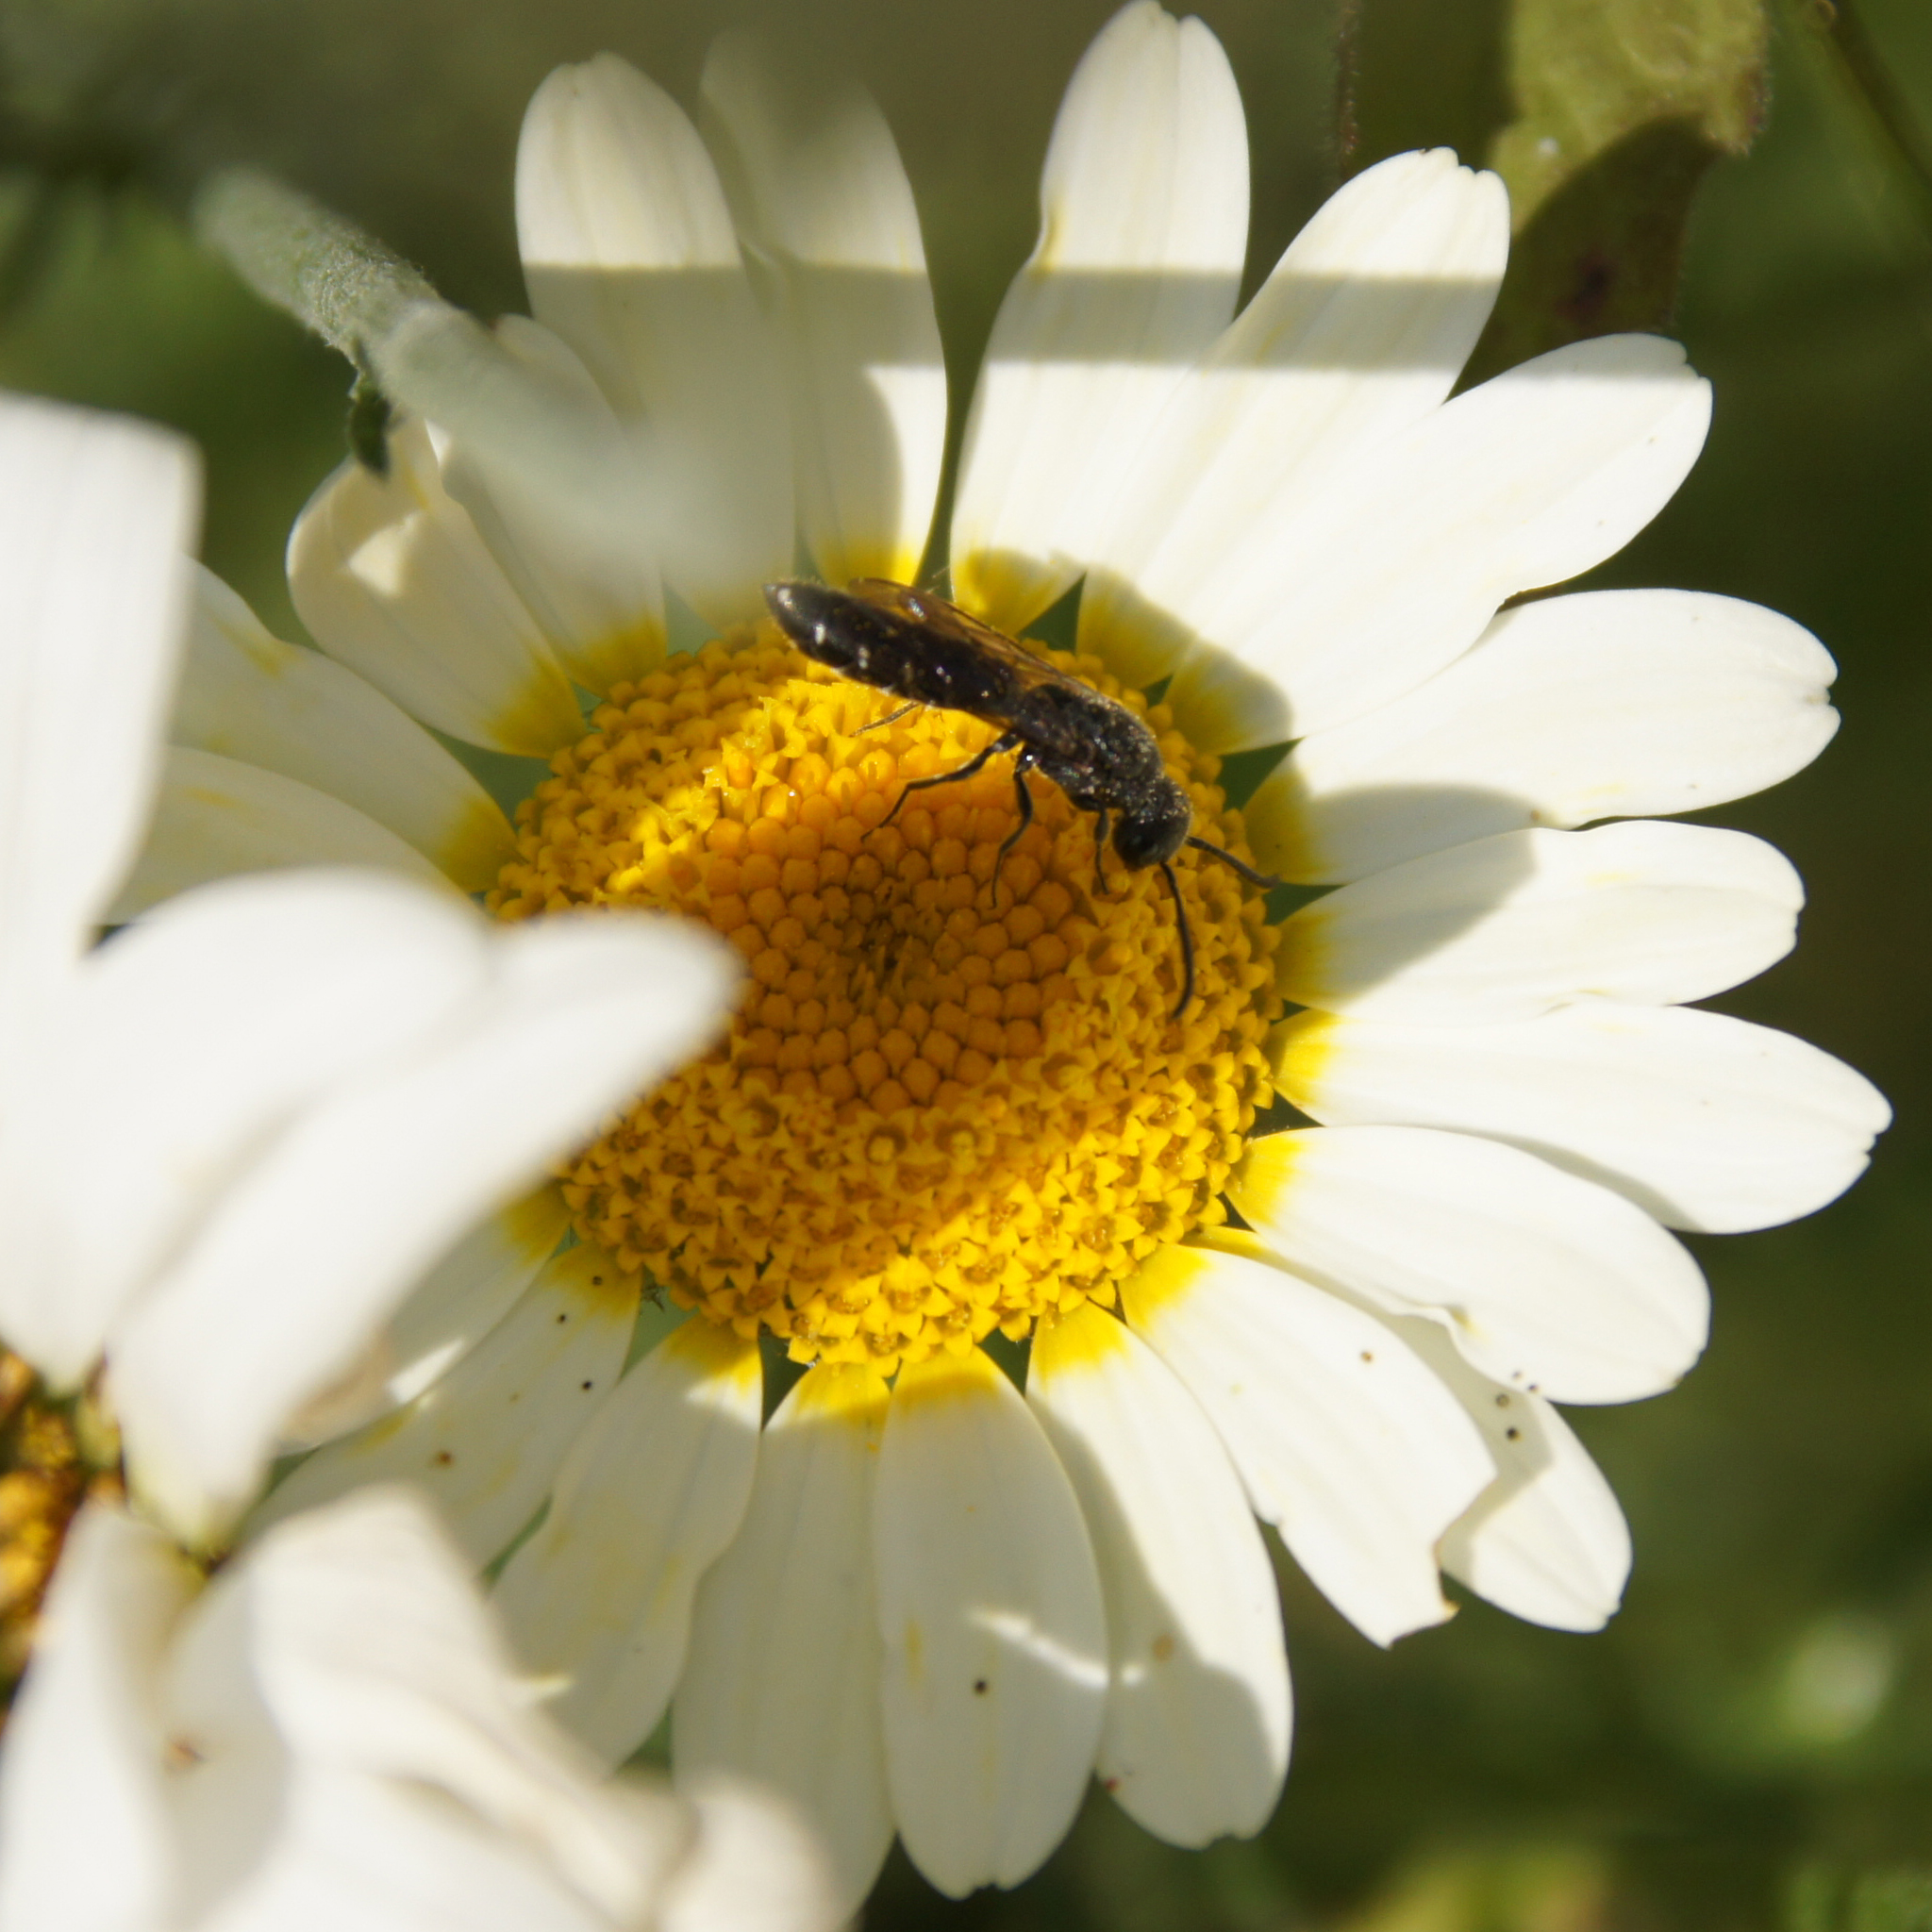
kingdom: Animalia
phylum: Arthropoda
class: Insecta
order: Hymenoptera
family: Sapygidae
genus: Sapygina
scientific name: Sapygina decemguttata
